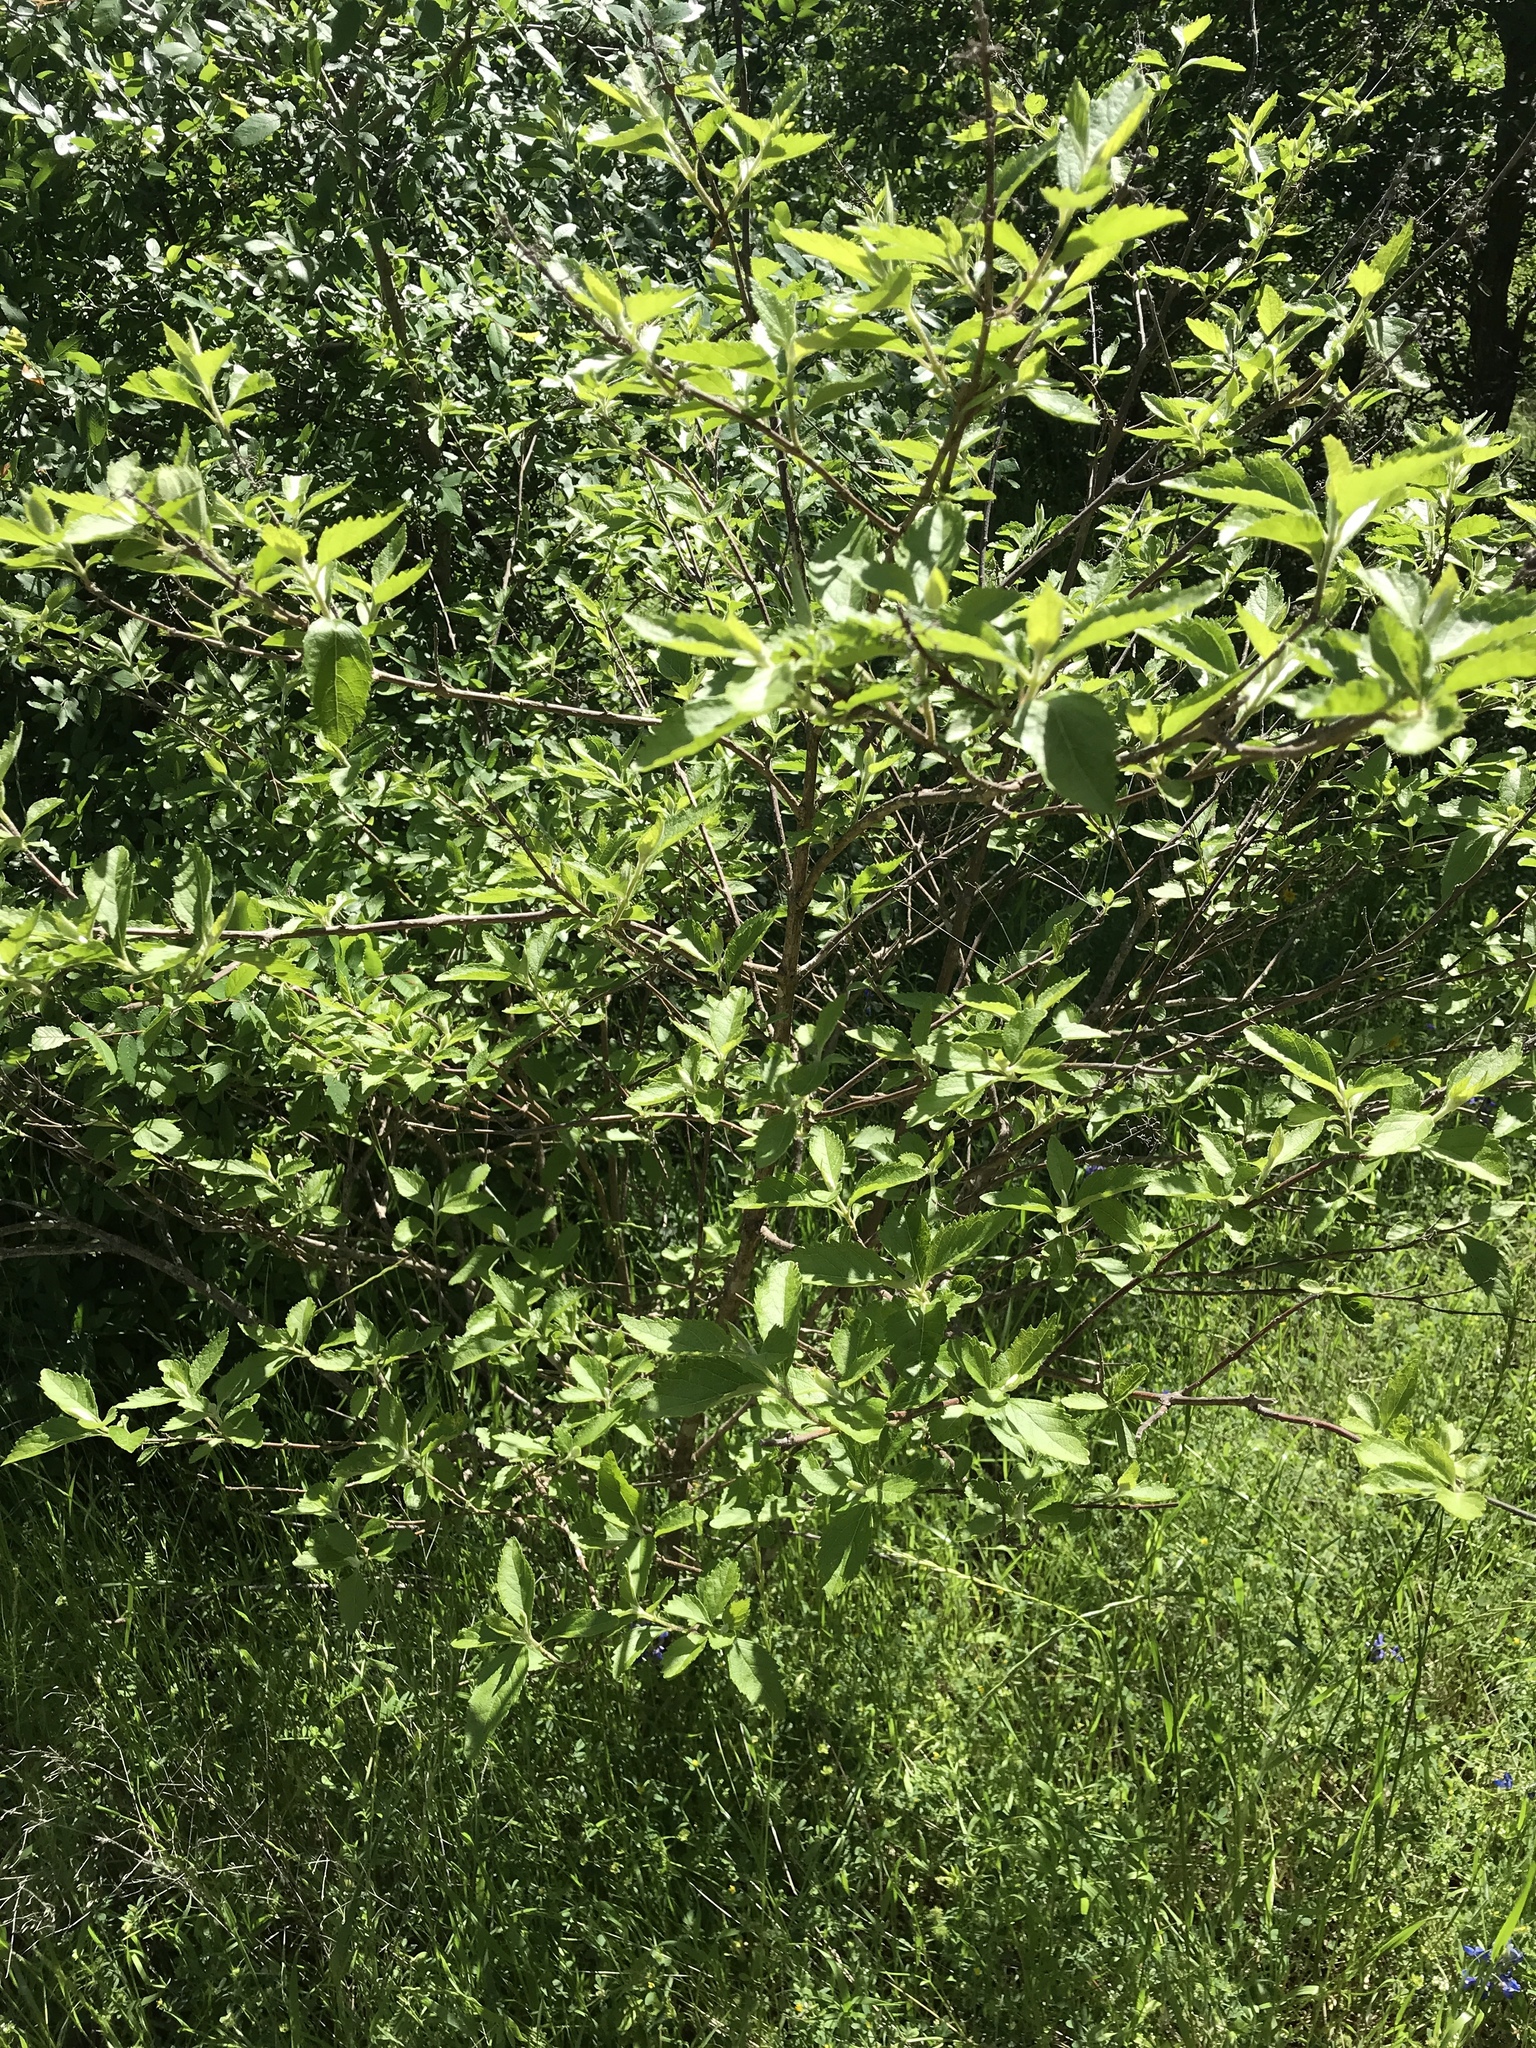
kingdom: Plantae
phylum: Tracheophyta
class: Magnoliopsida
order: Lamiales
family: Lamiaceae
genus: Callicarpa
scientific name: Callicarpa americana
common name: American beautyberry
